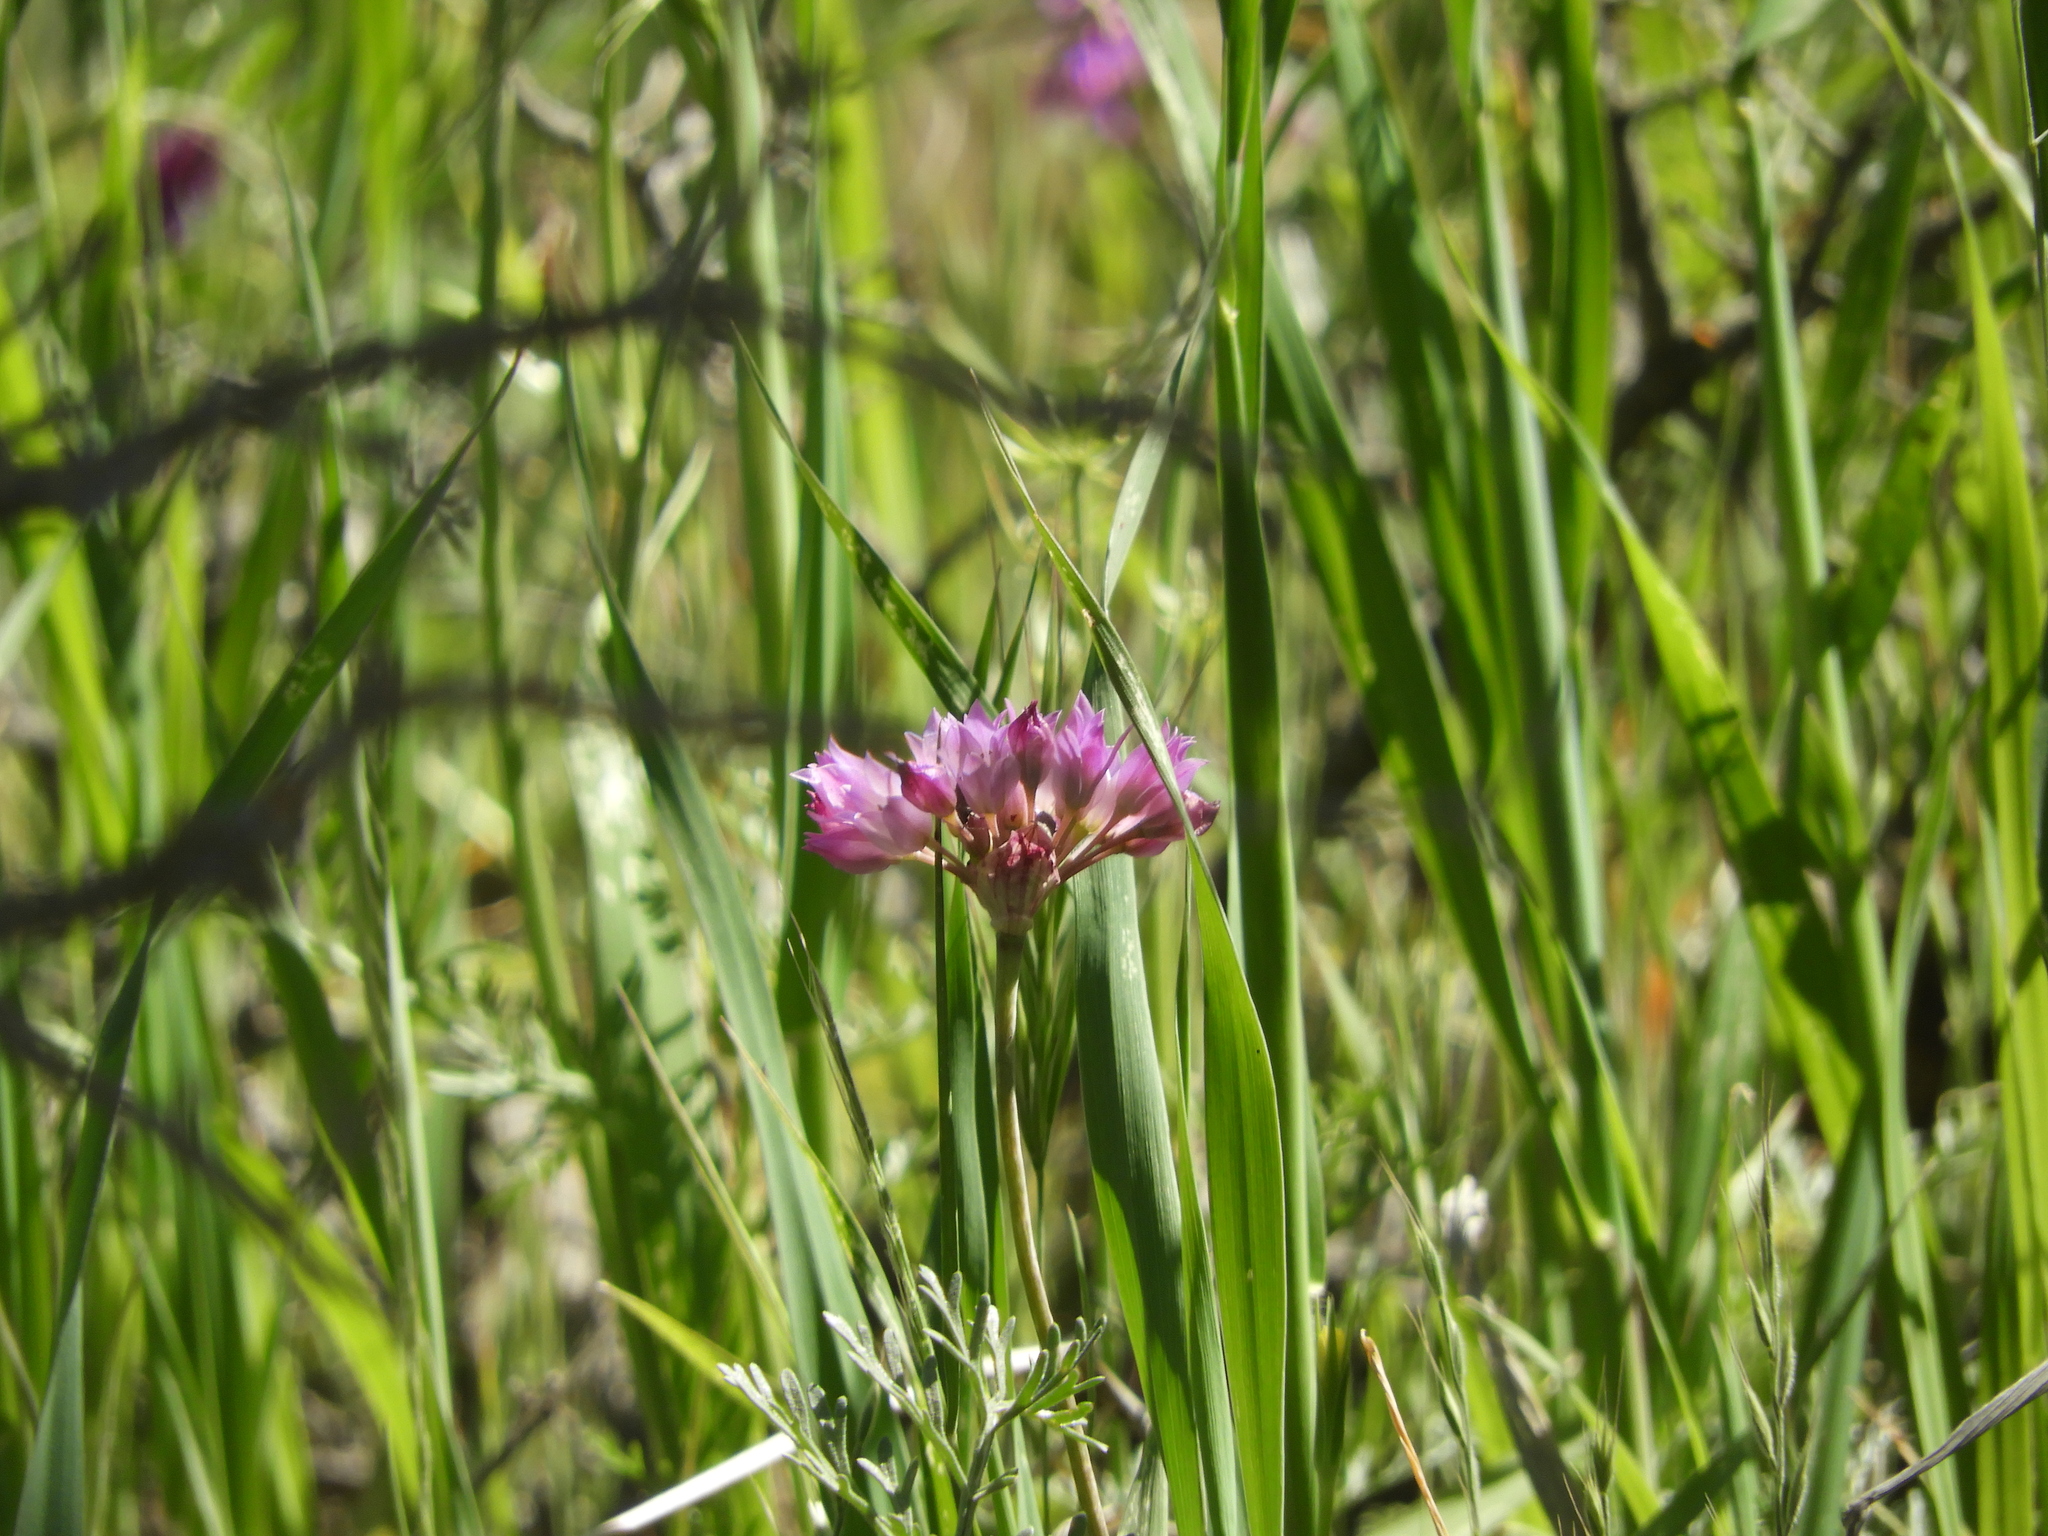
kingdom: Plantae
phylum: Tracheophyta
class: Liliopsida
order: Asparagales
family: Amaryllidaceae
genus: Allium
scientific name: Allium serra
